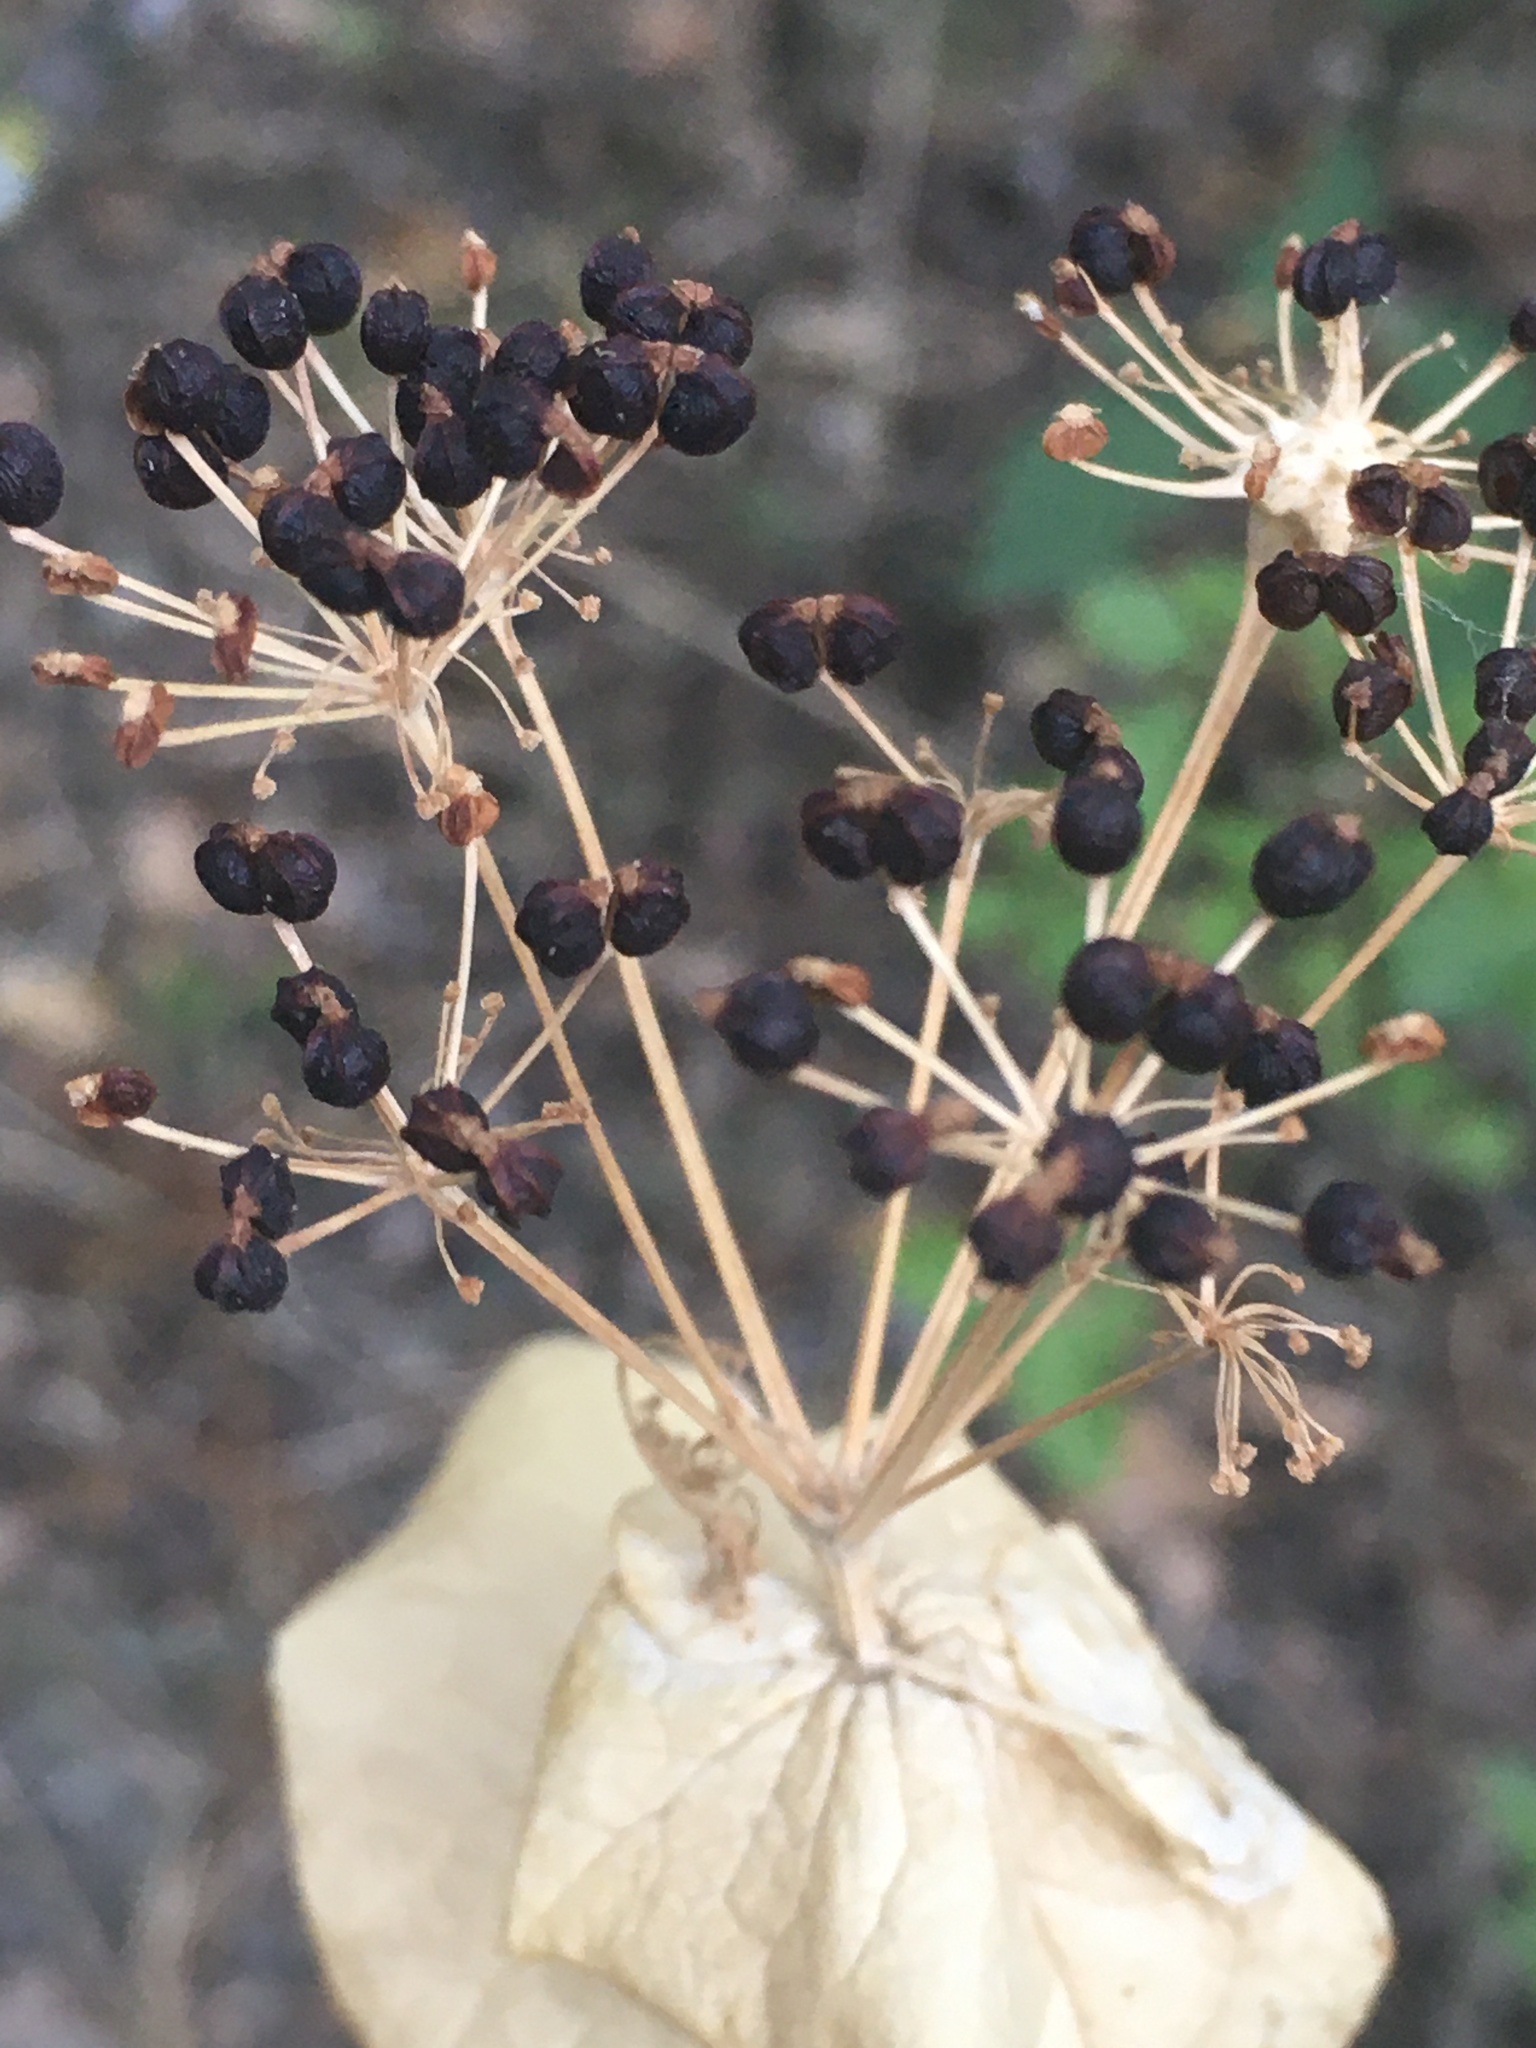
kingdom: Plantae
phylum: Tracheophyta
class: Magnoliopsida
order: Apiales
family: Apiaceae
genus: Smyrnium
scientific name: Smyrnium perfoliatum
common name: Perfoliate alexanders
